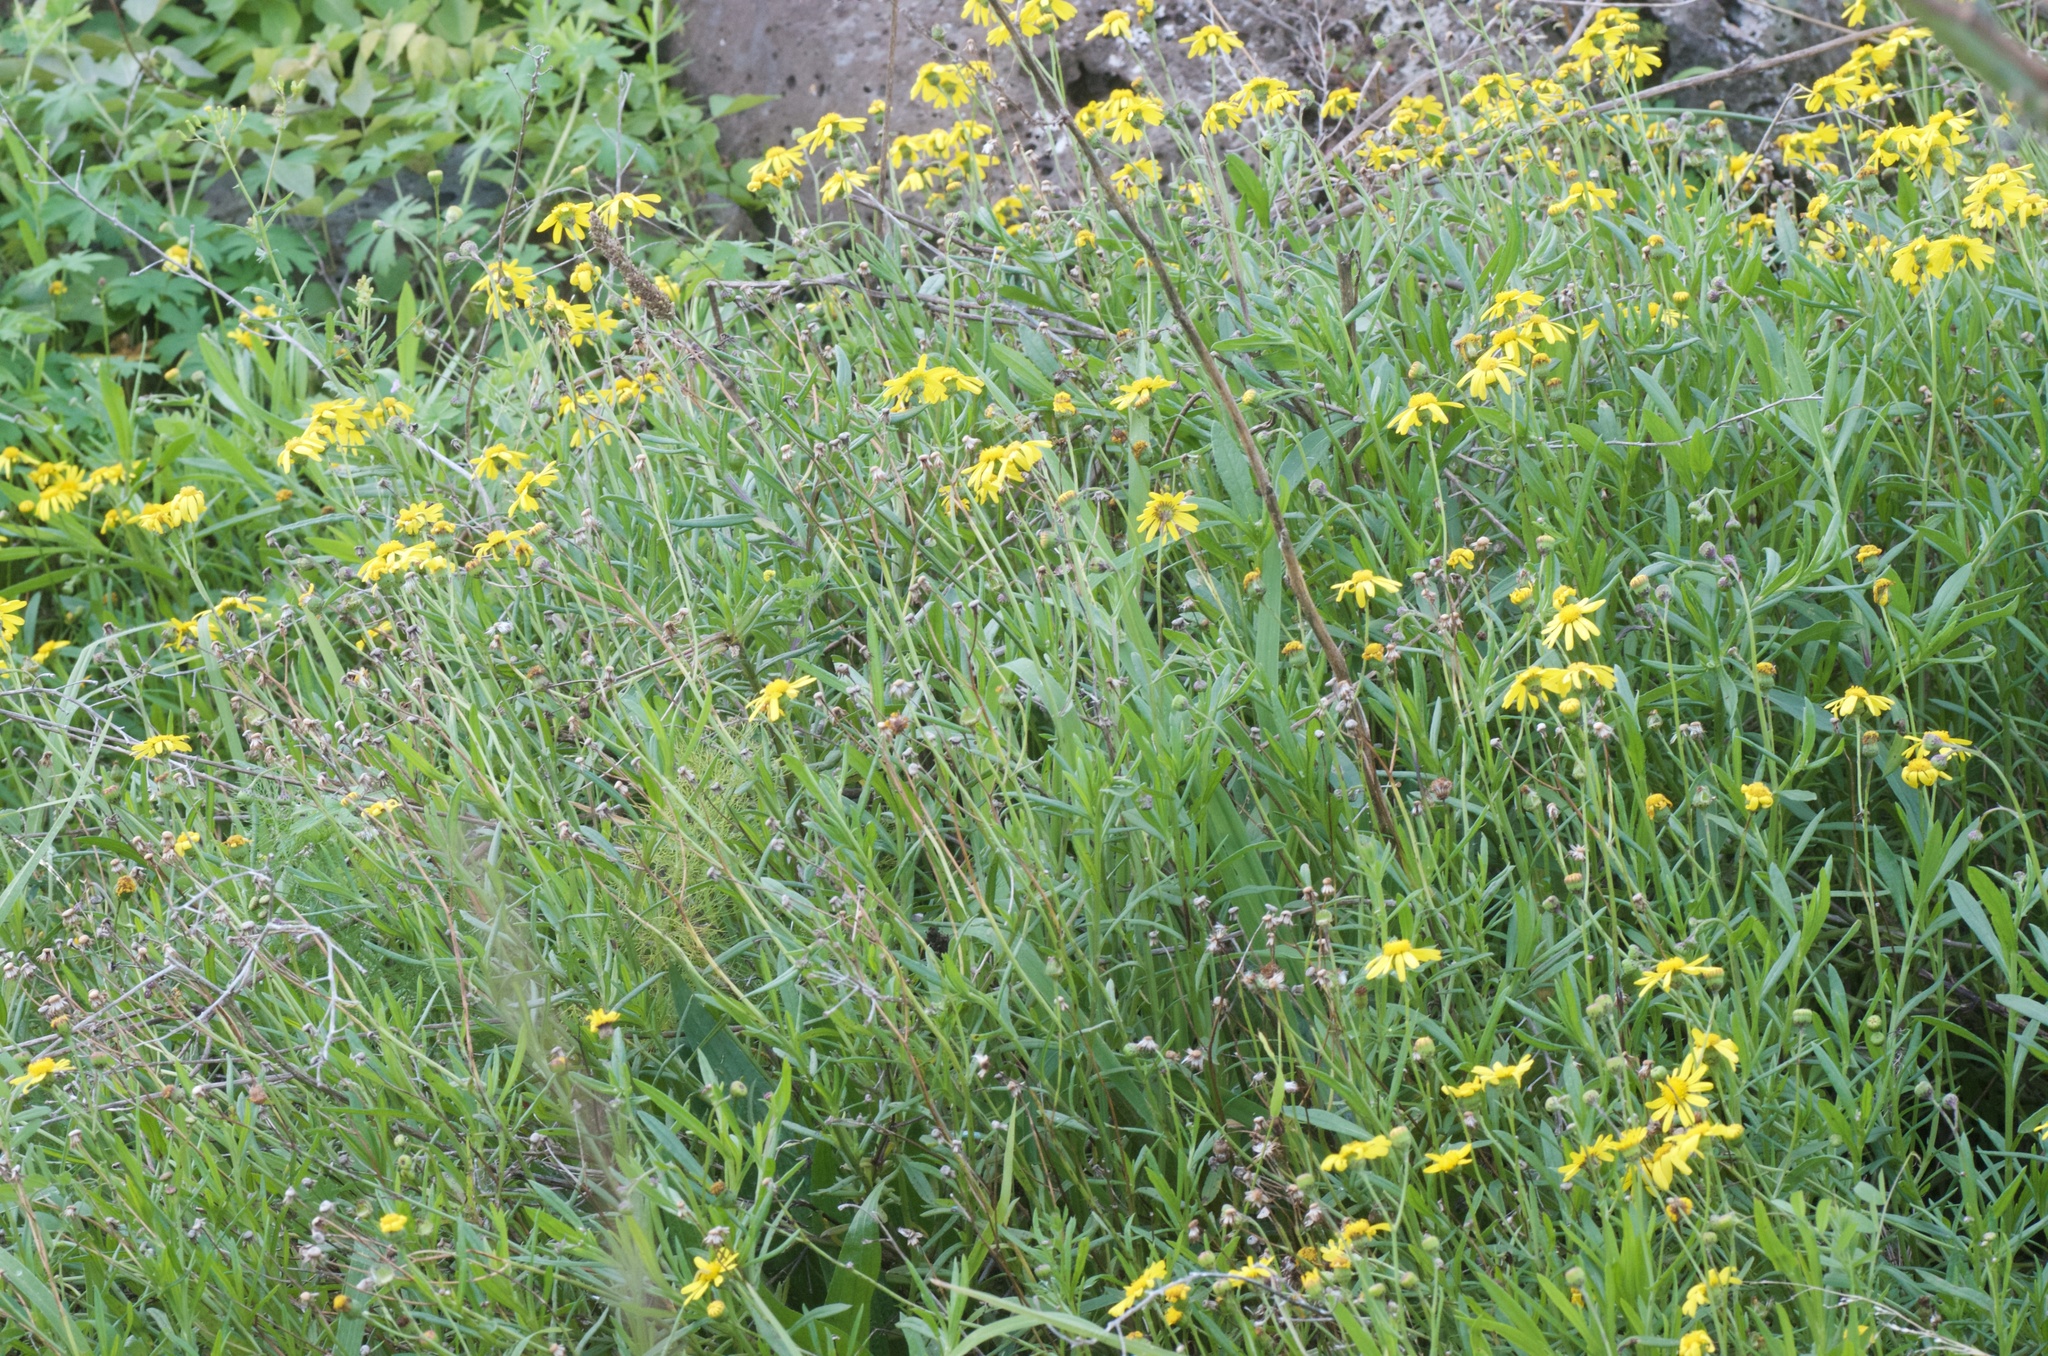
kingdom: Plantae
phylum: Tracheophyta
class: Magnoliopsida
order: Asterales
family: Asteraceae
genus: Senecio
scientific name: Senecio skirrhodon
